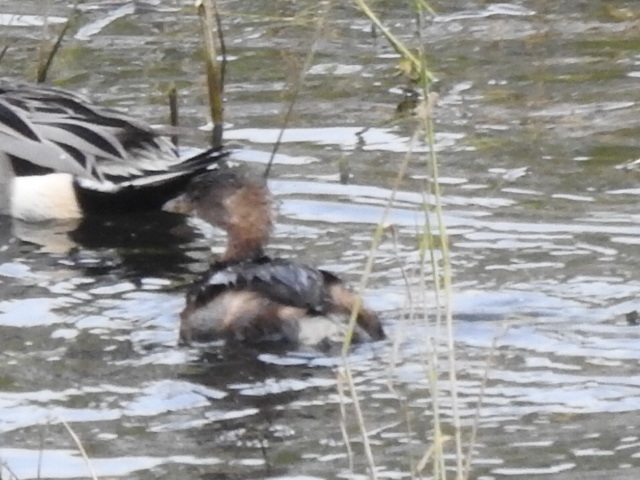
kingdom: Animalia
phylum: Chordata
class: Aves
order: Podicipediformes
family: Podicipedidae
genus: Podilymbus
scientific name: Podilymbus podiceps
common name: Pied-billed grebe
